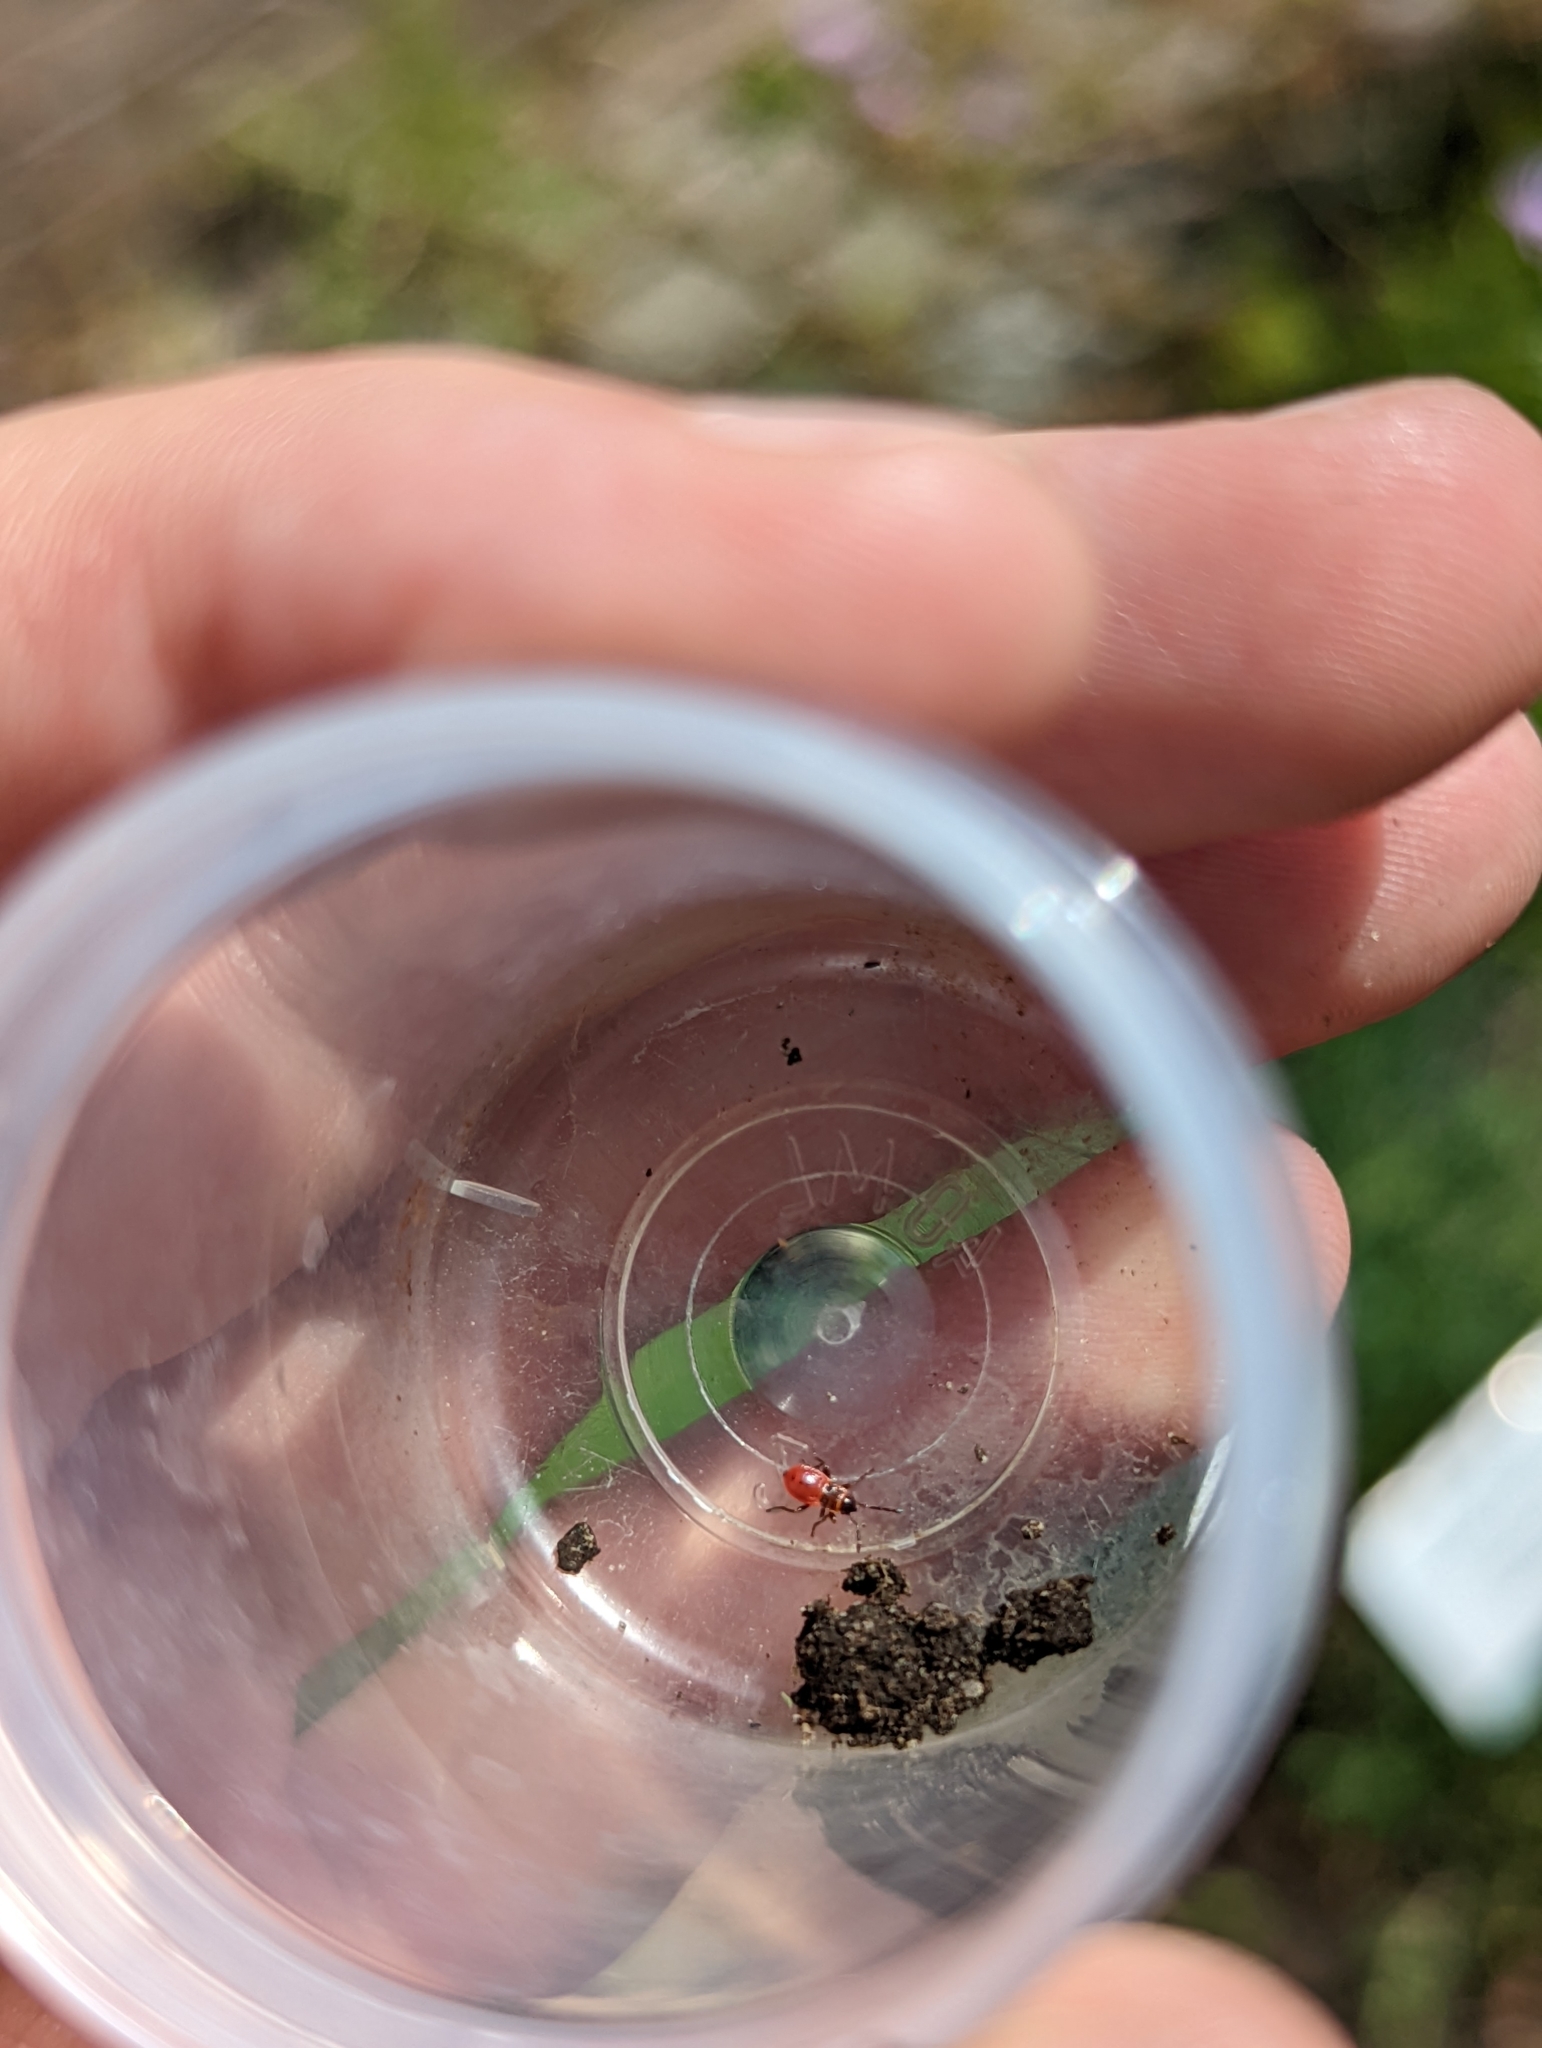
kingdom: Animalia
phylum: Arthropoda
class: Insecta
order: Hemiptera
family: Pyrrhocoridae
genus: Pyrrhocoris
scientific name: Pyrrhocoris apterus
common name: Firebug
